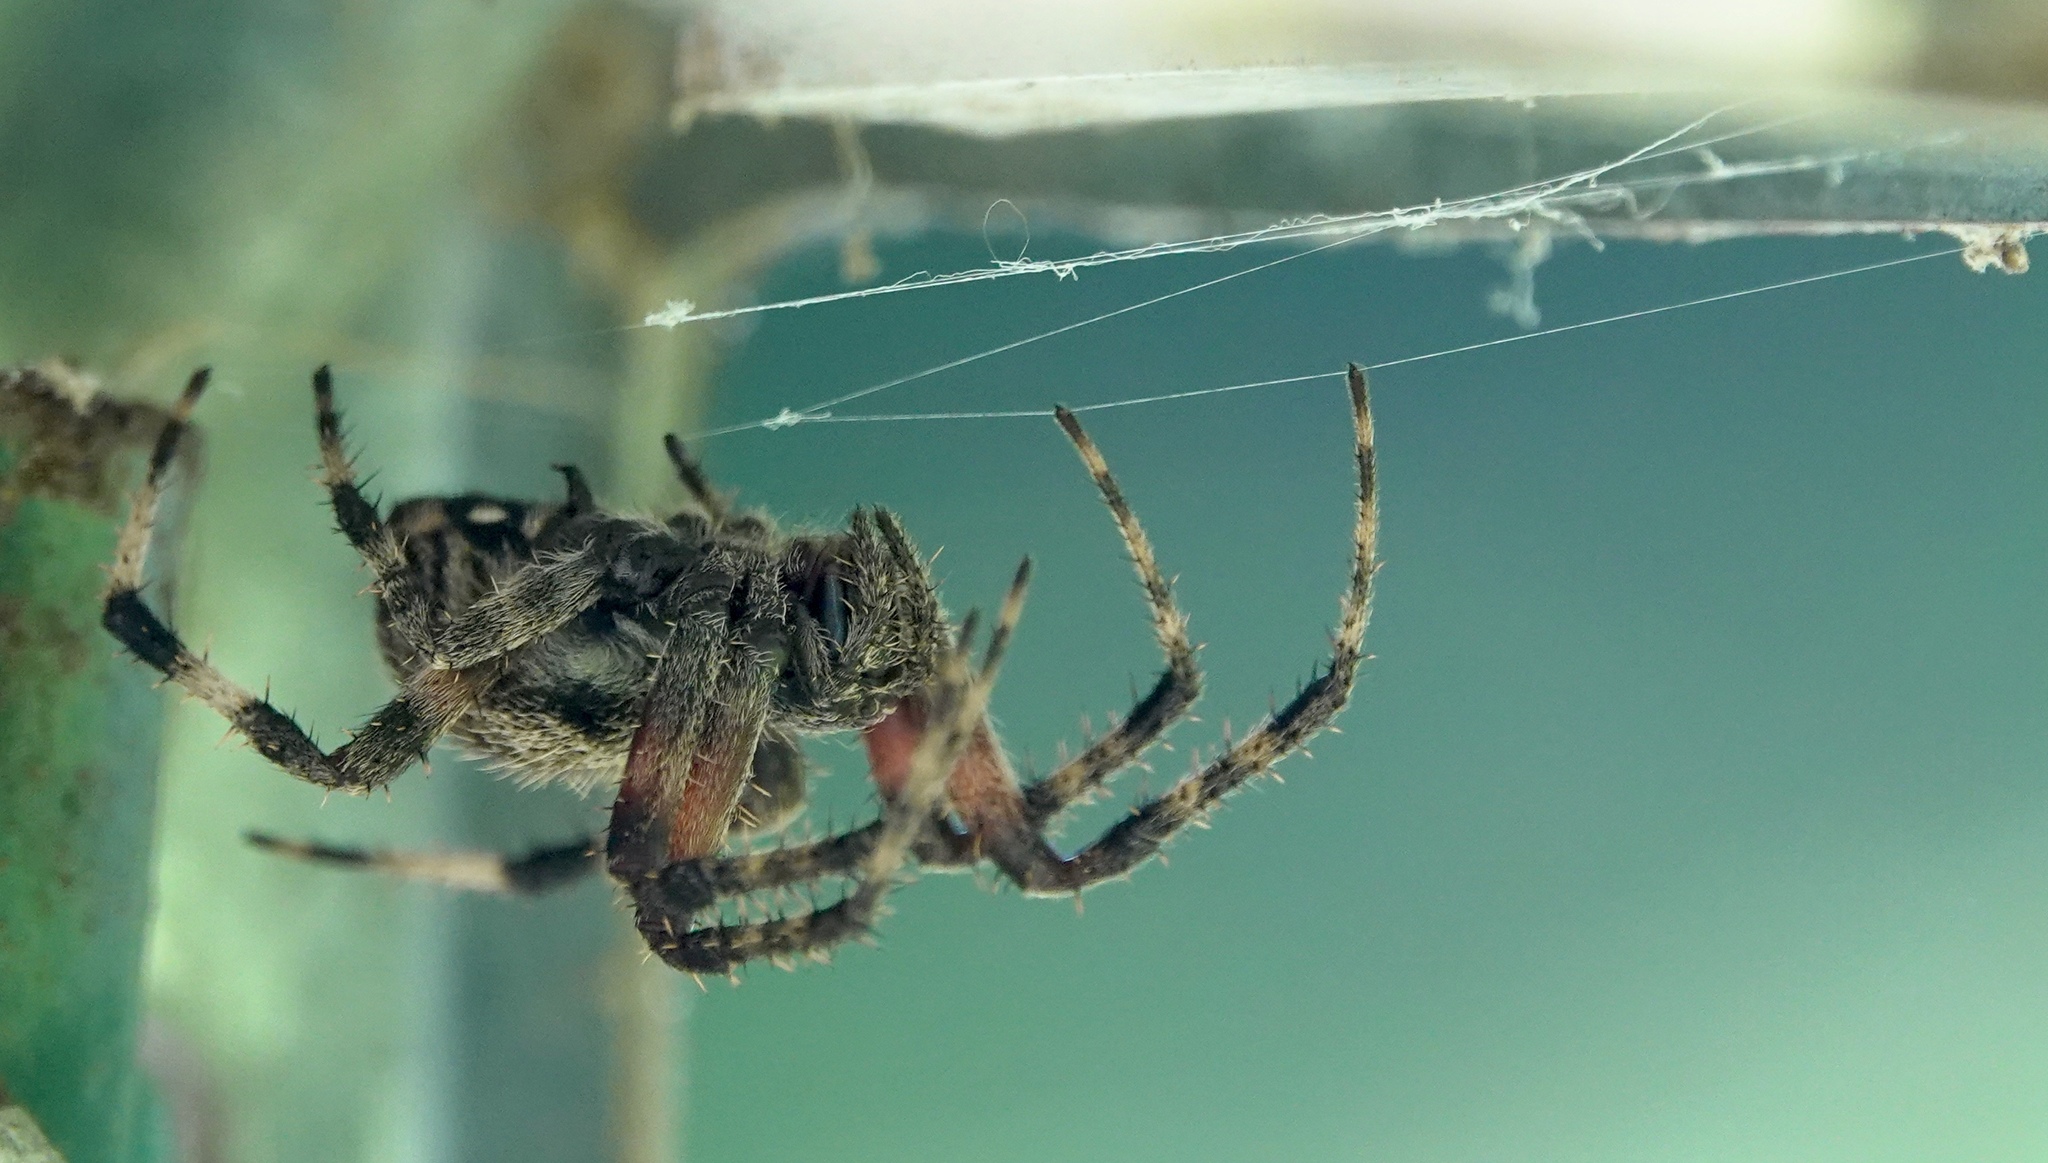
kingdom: Animalia
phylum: Arthropoda
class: Arachnida
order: Araneae
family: Araneidae
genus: Neoscona
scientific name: Neoscona crucifera
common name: Spotted orbweaver
